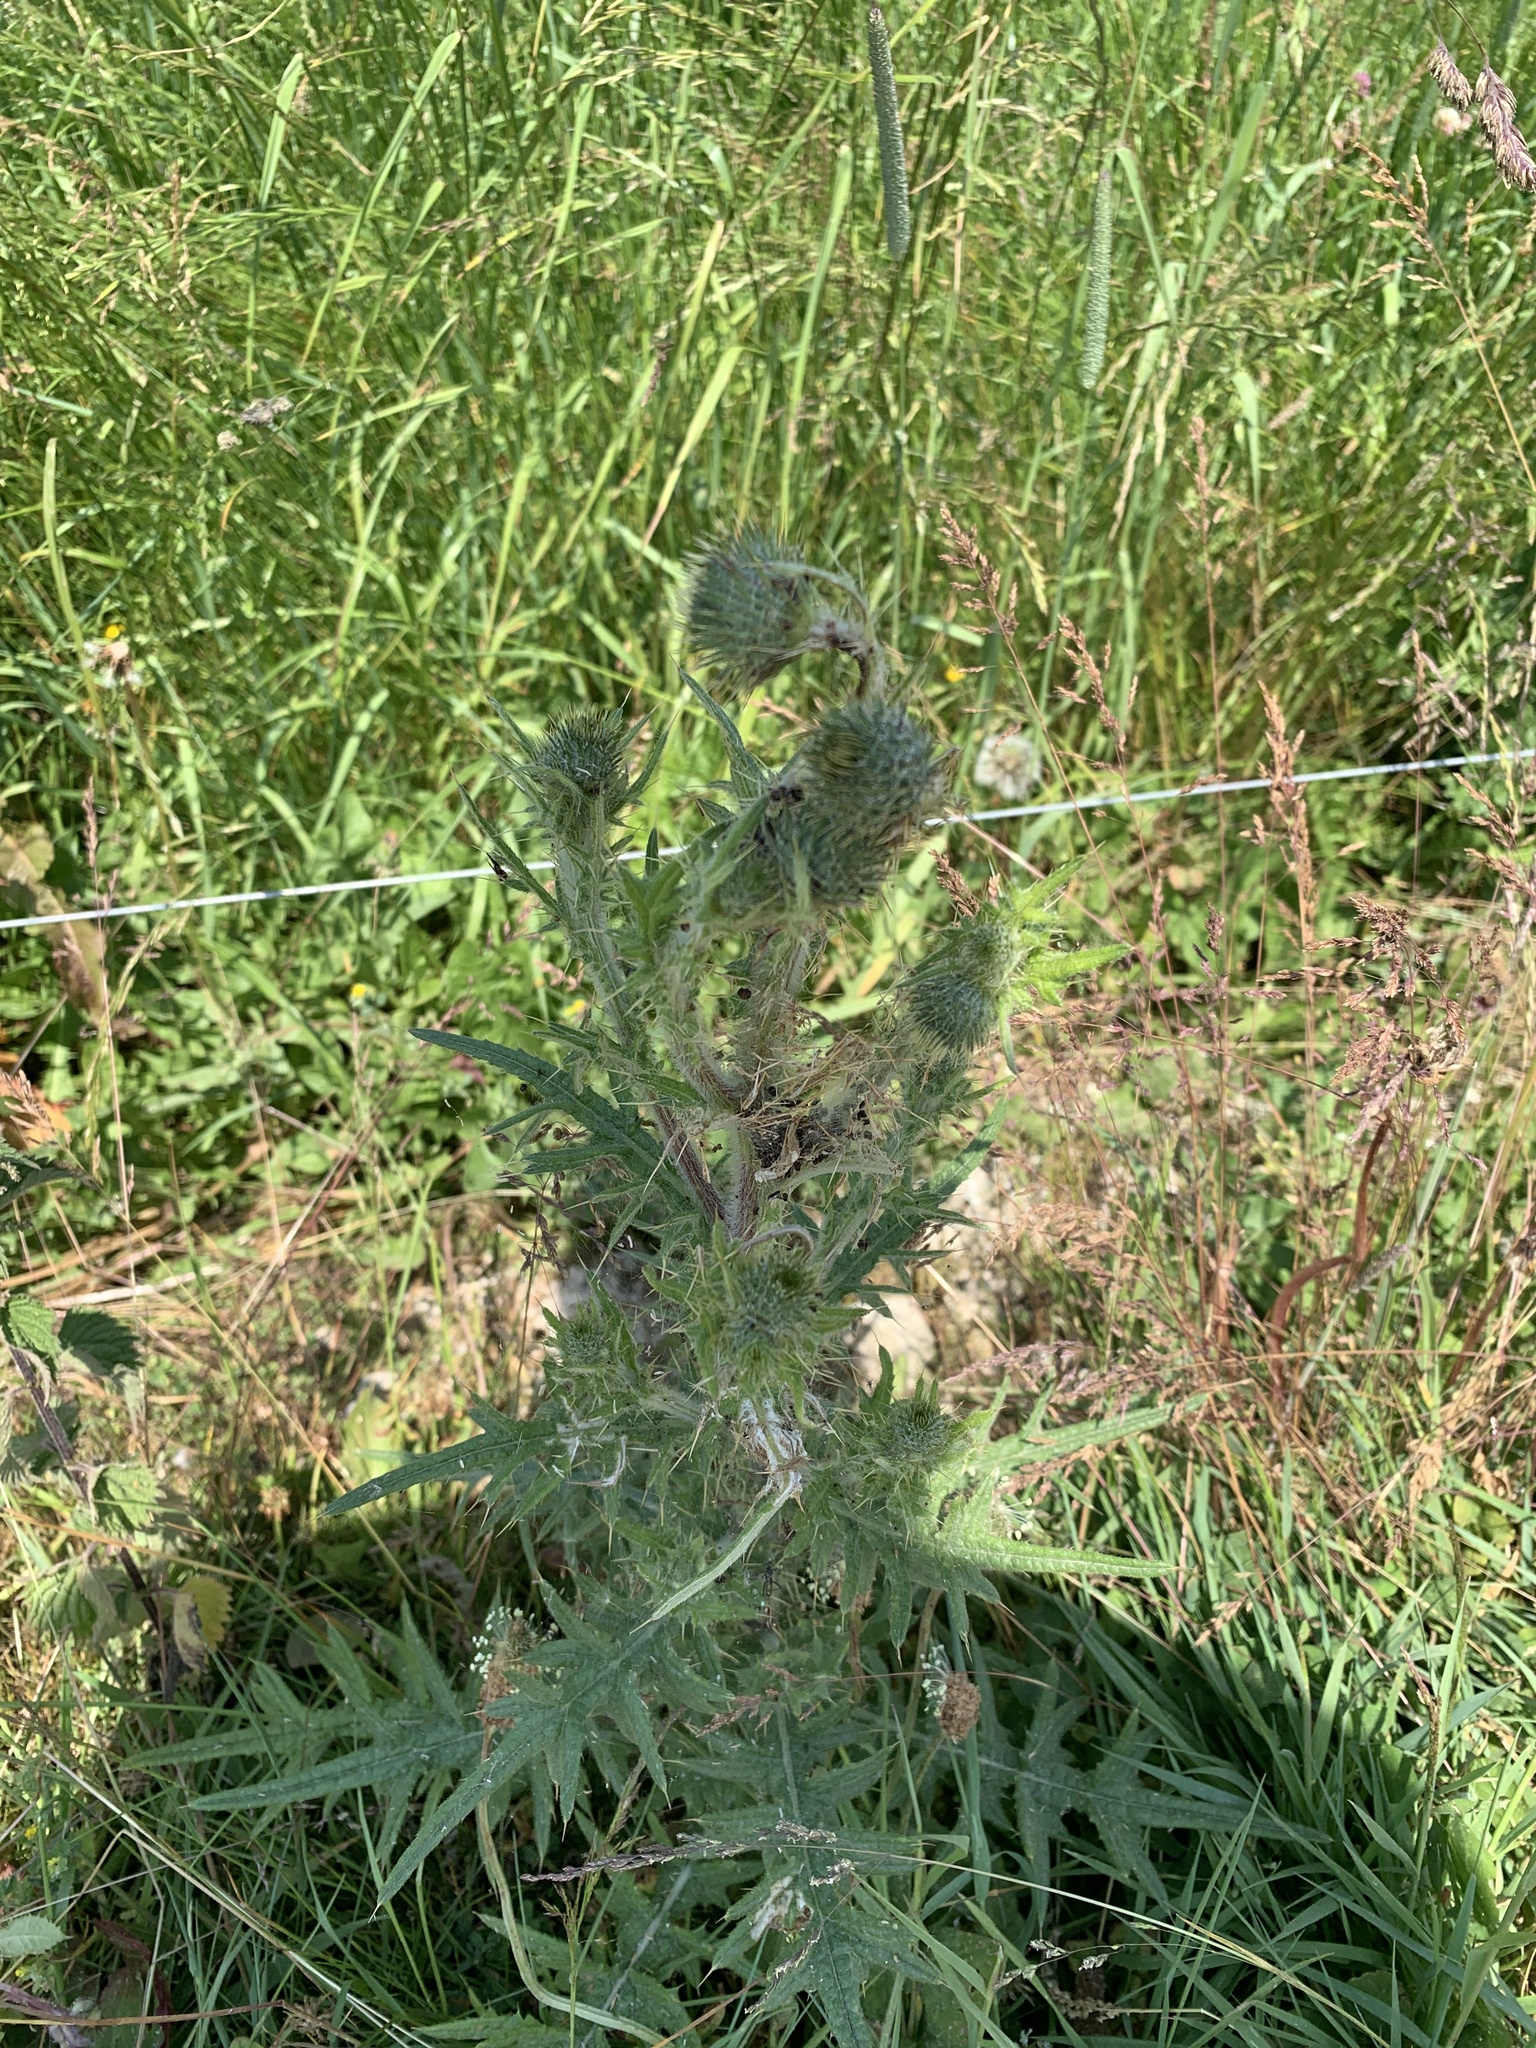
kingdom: Plantae
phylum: Tracheophyta
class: Magnoliopsida
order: Asterales
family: Asteraceae
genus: Cirsium
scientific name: Cirsium vulgare
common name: Bull thistle
